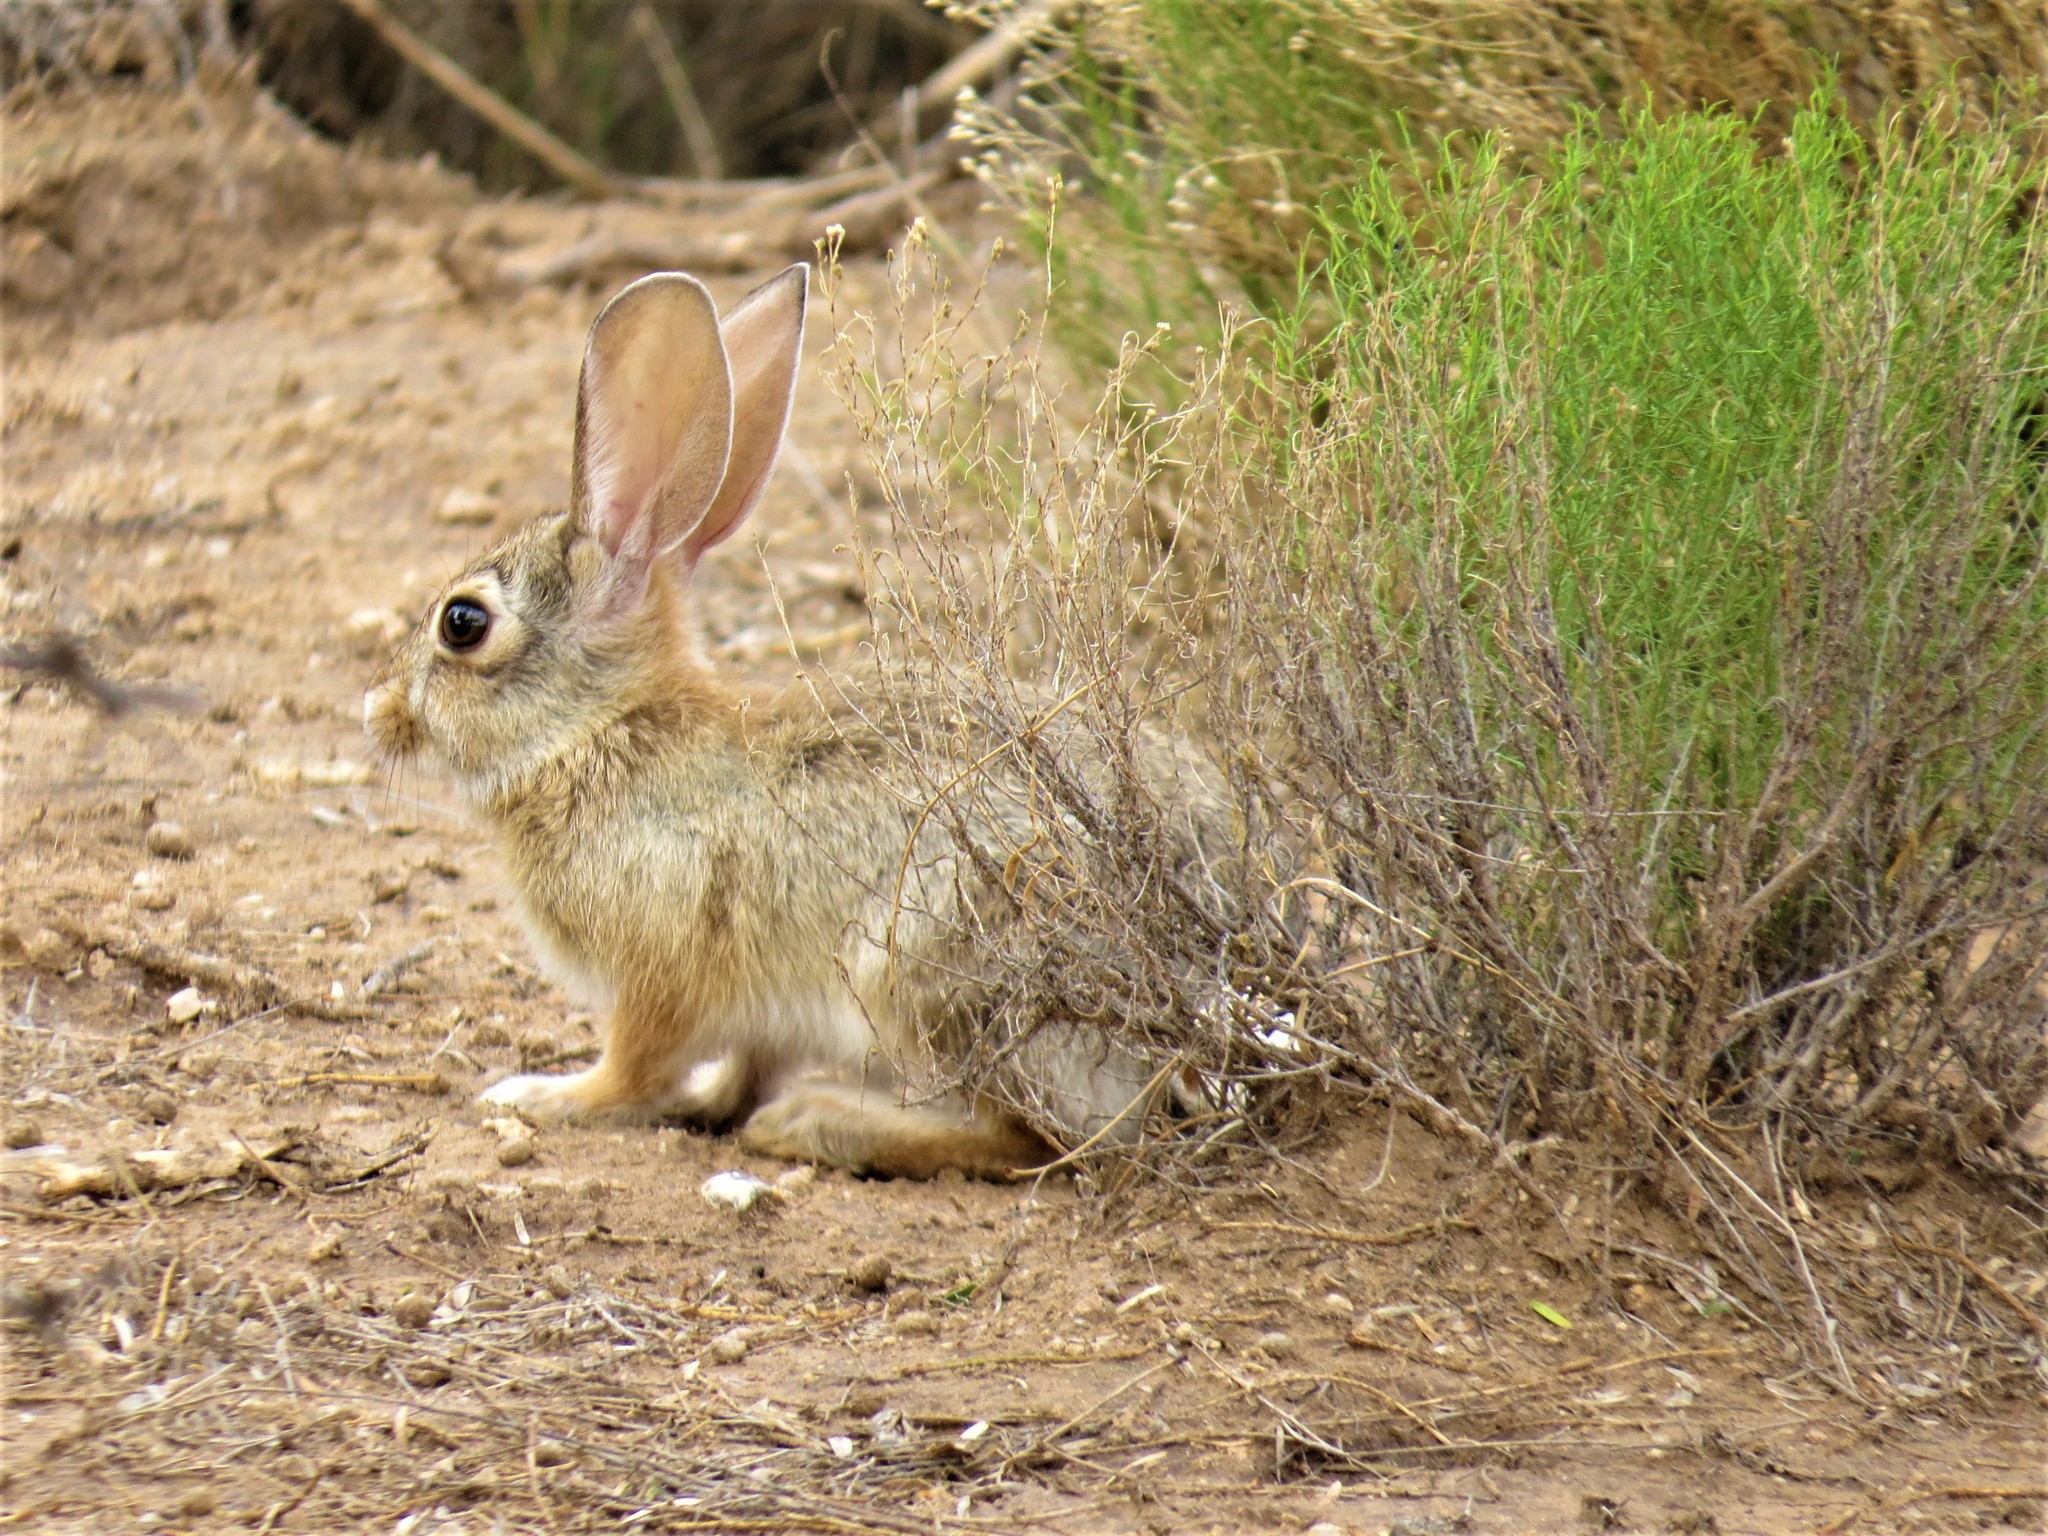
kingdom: Animalia
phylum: Chordata
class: Mammalia
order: Lagomorpha
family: Leporidae
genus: Sylvilagus
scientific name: Sylvilagus audubonii
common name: Desert cottontail
